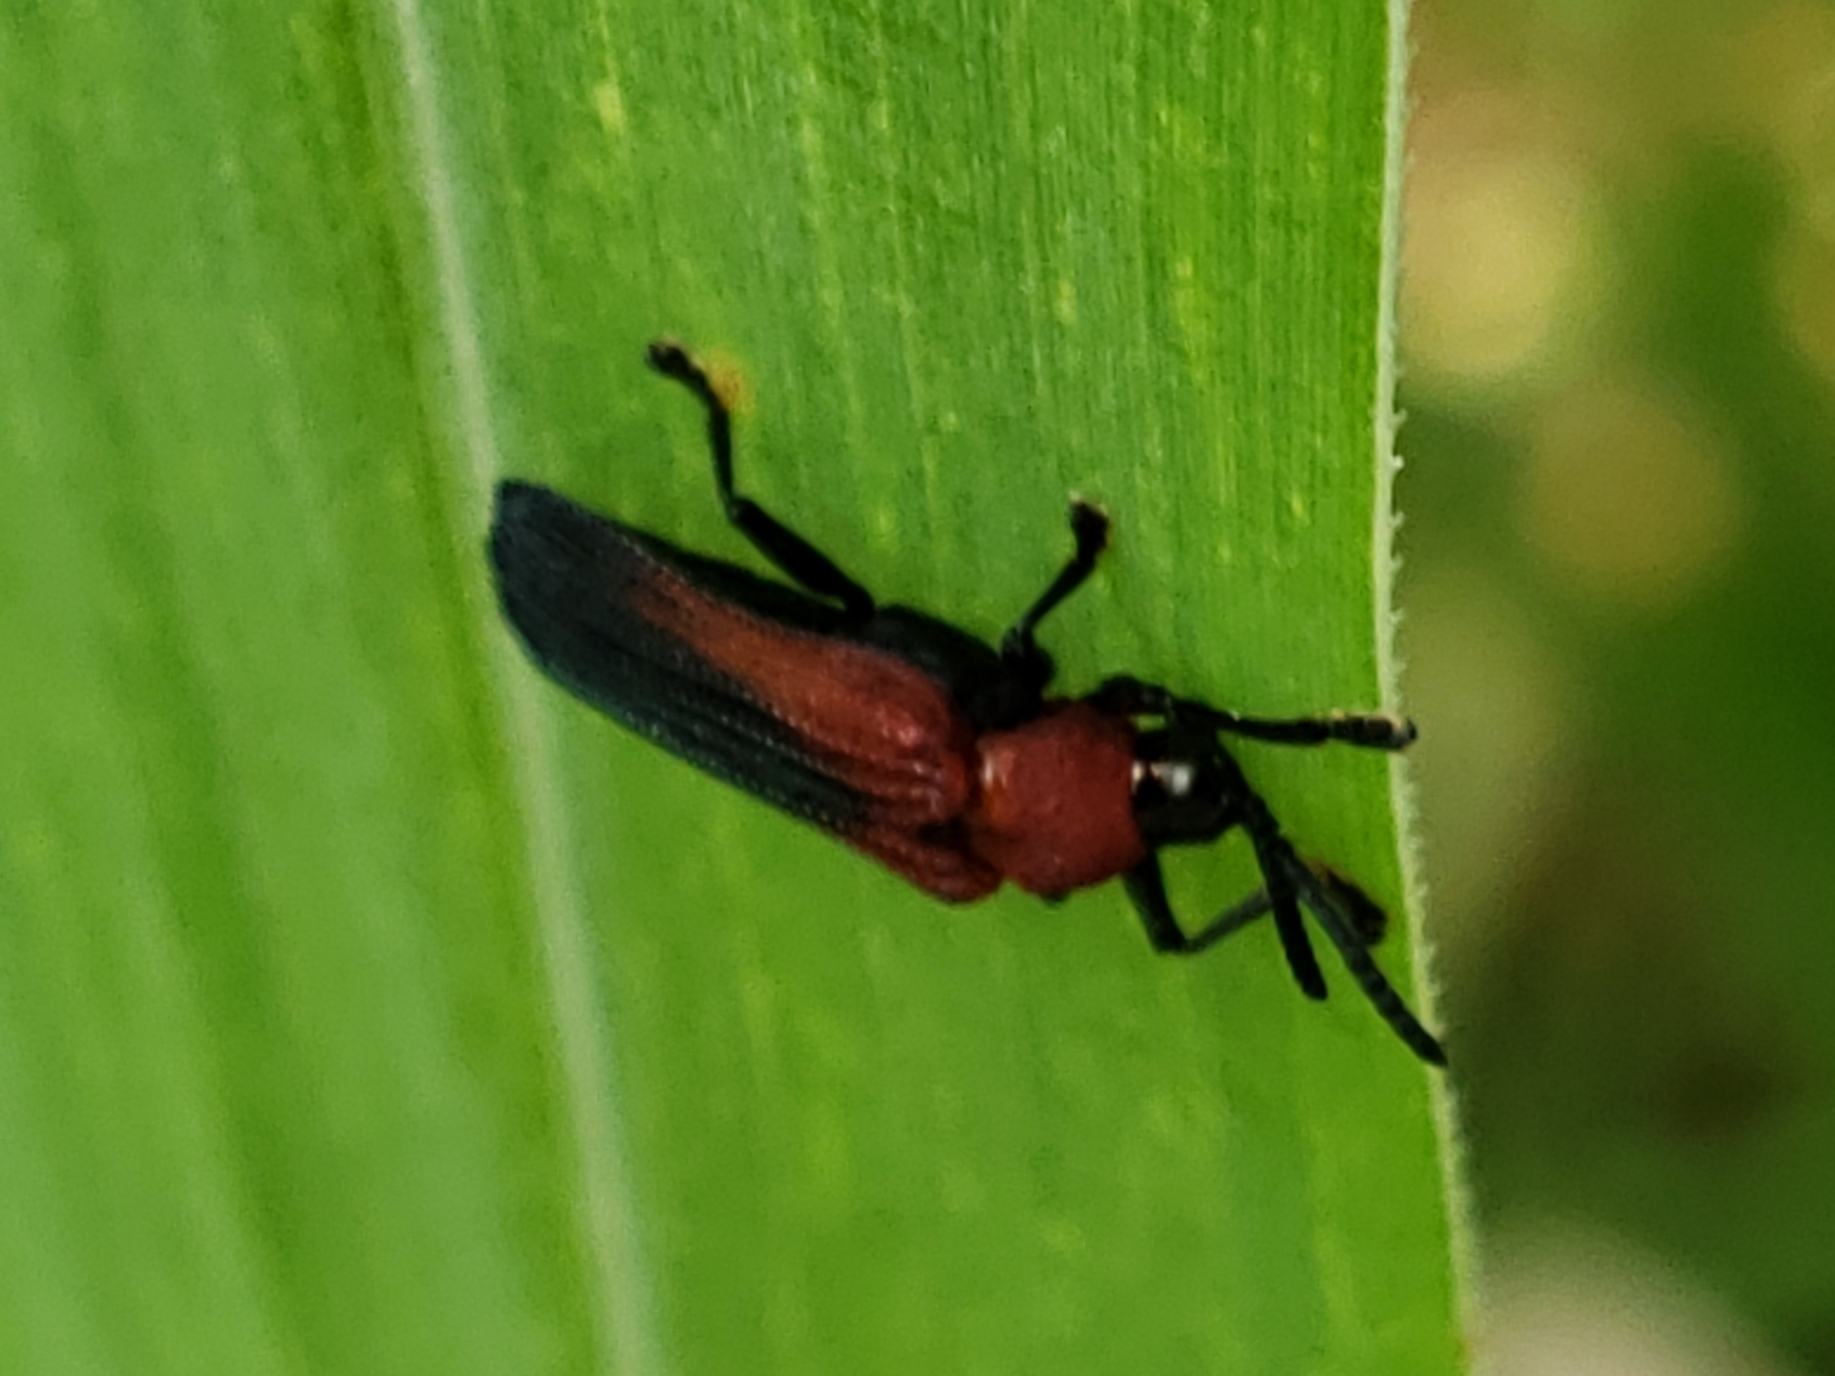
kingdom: Animalia
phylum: Arthropoda
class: Insecta
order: Coleoptera
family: Chrysomelidae
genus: Chalepus
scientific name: Chalepus sanguinicollis
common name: Red-shouldered leaf beetle
